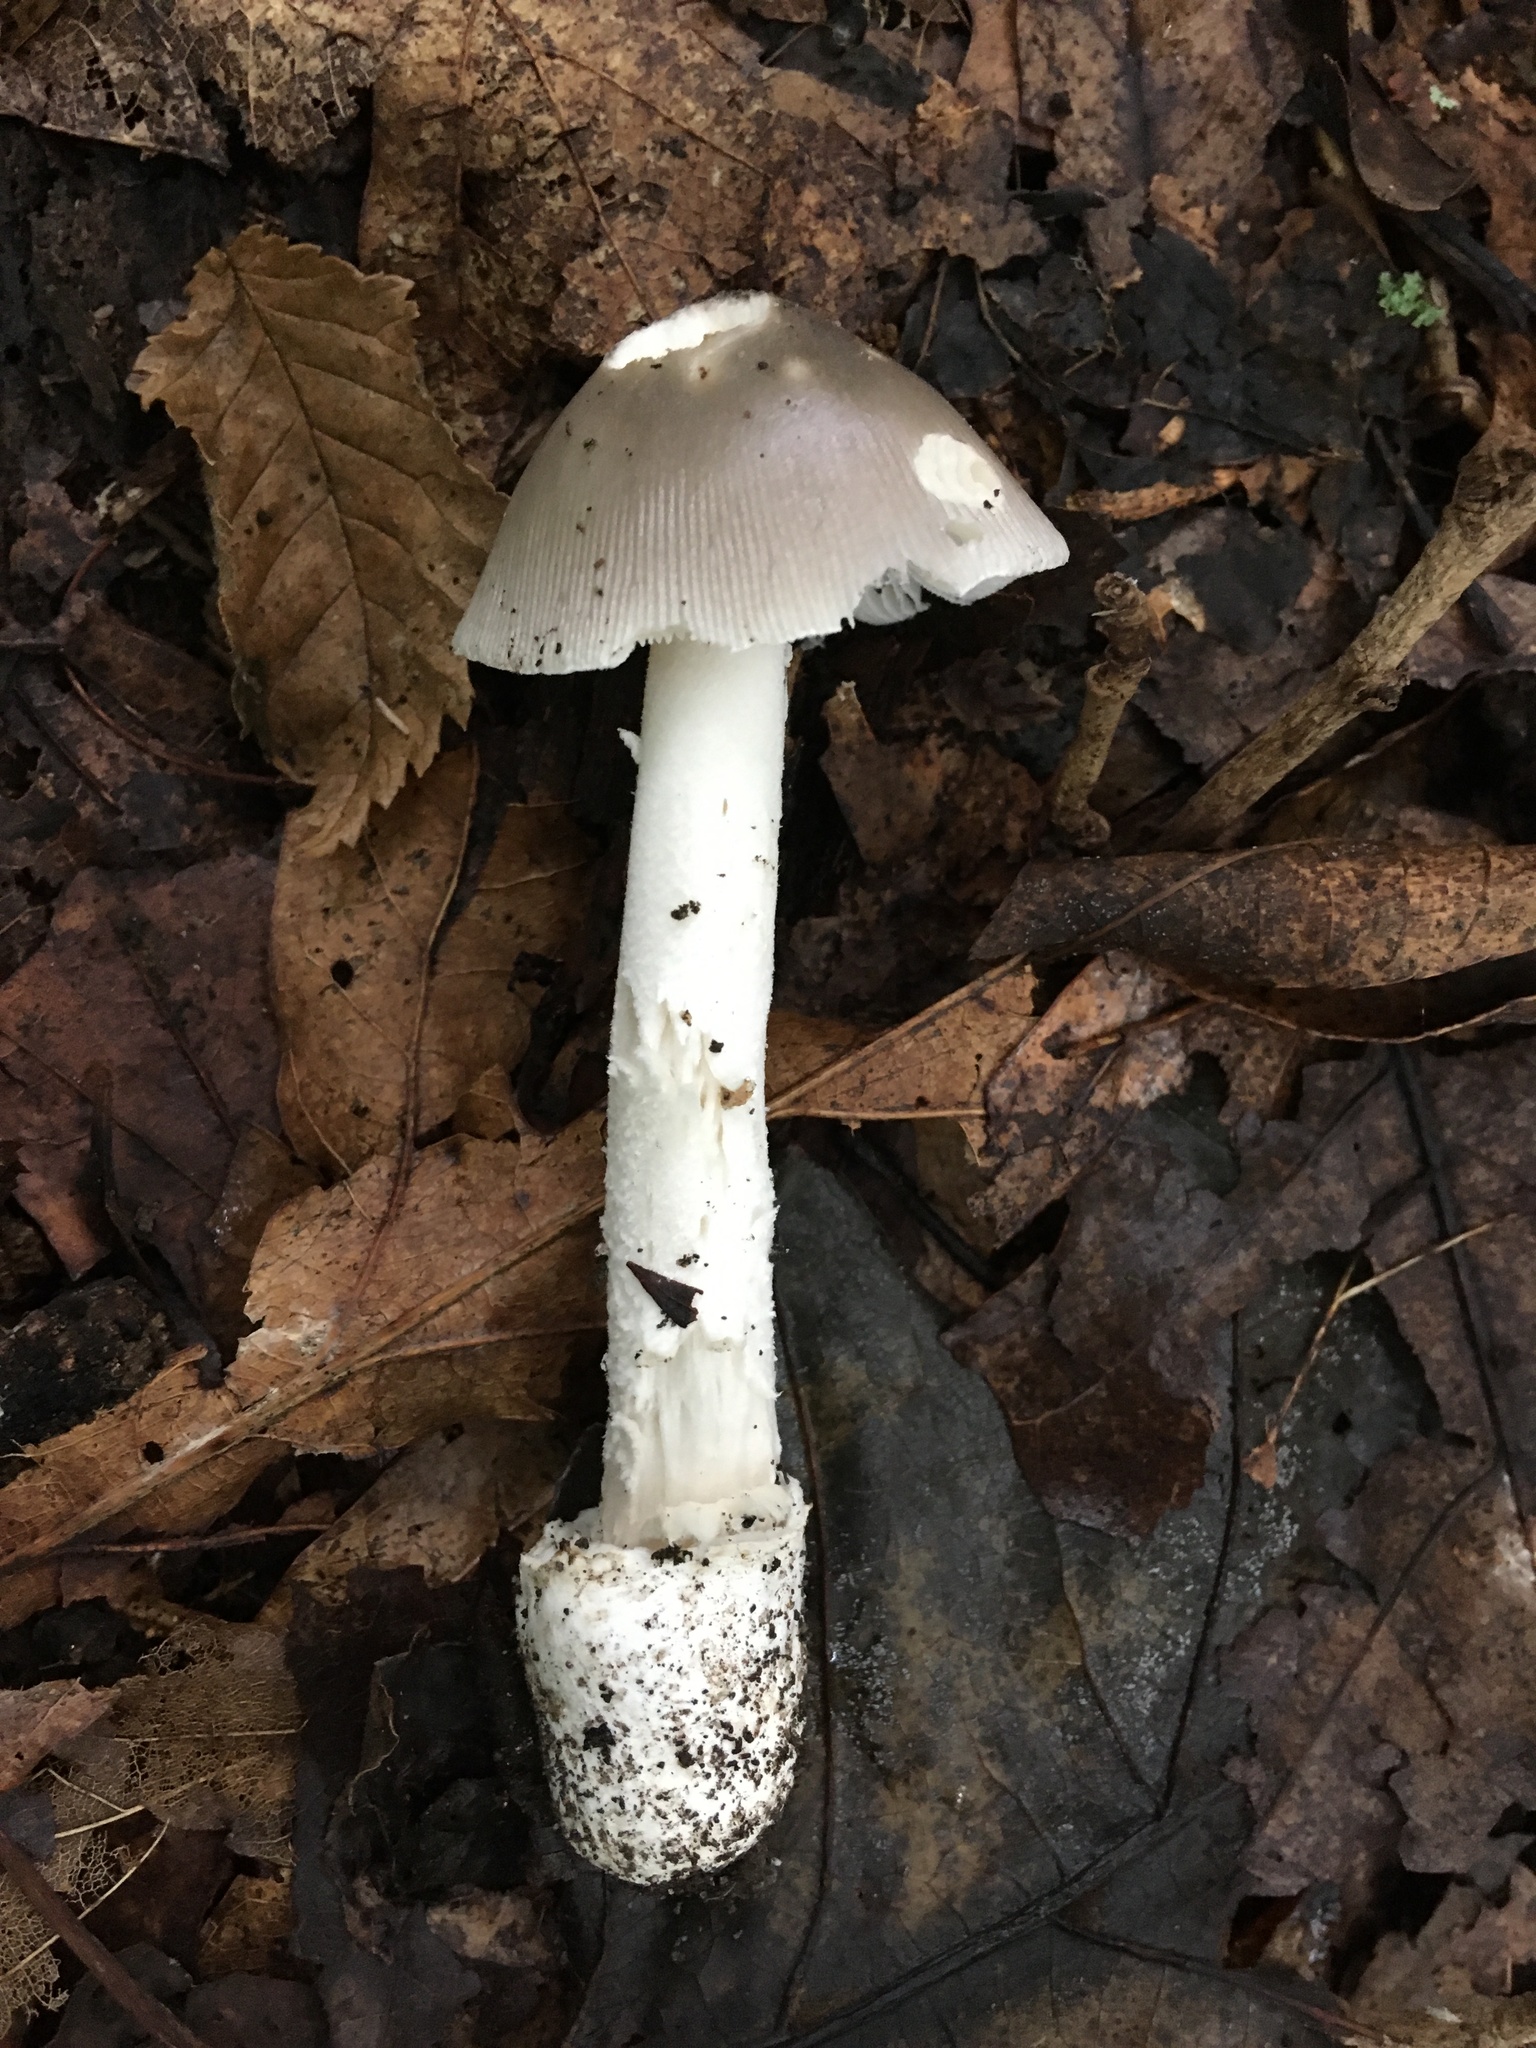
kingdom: Fungi
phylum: Basidiomycota
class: Agaricomycetes
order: Agaricales
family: Amanitaceae
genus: Amanita
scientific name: Amanita vaginata
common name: Grisette
